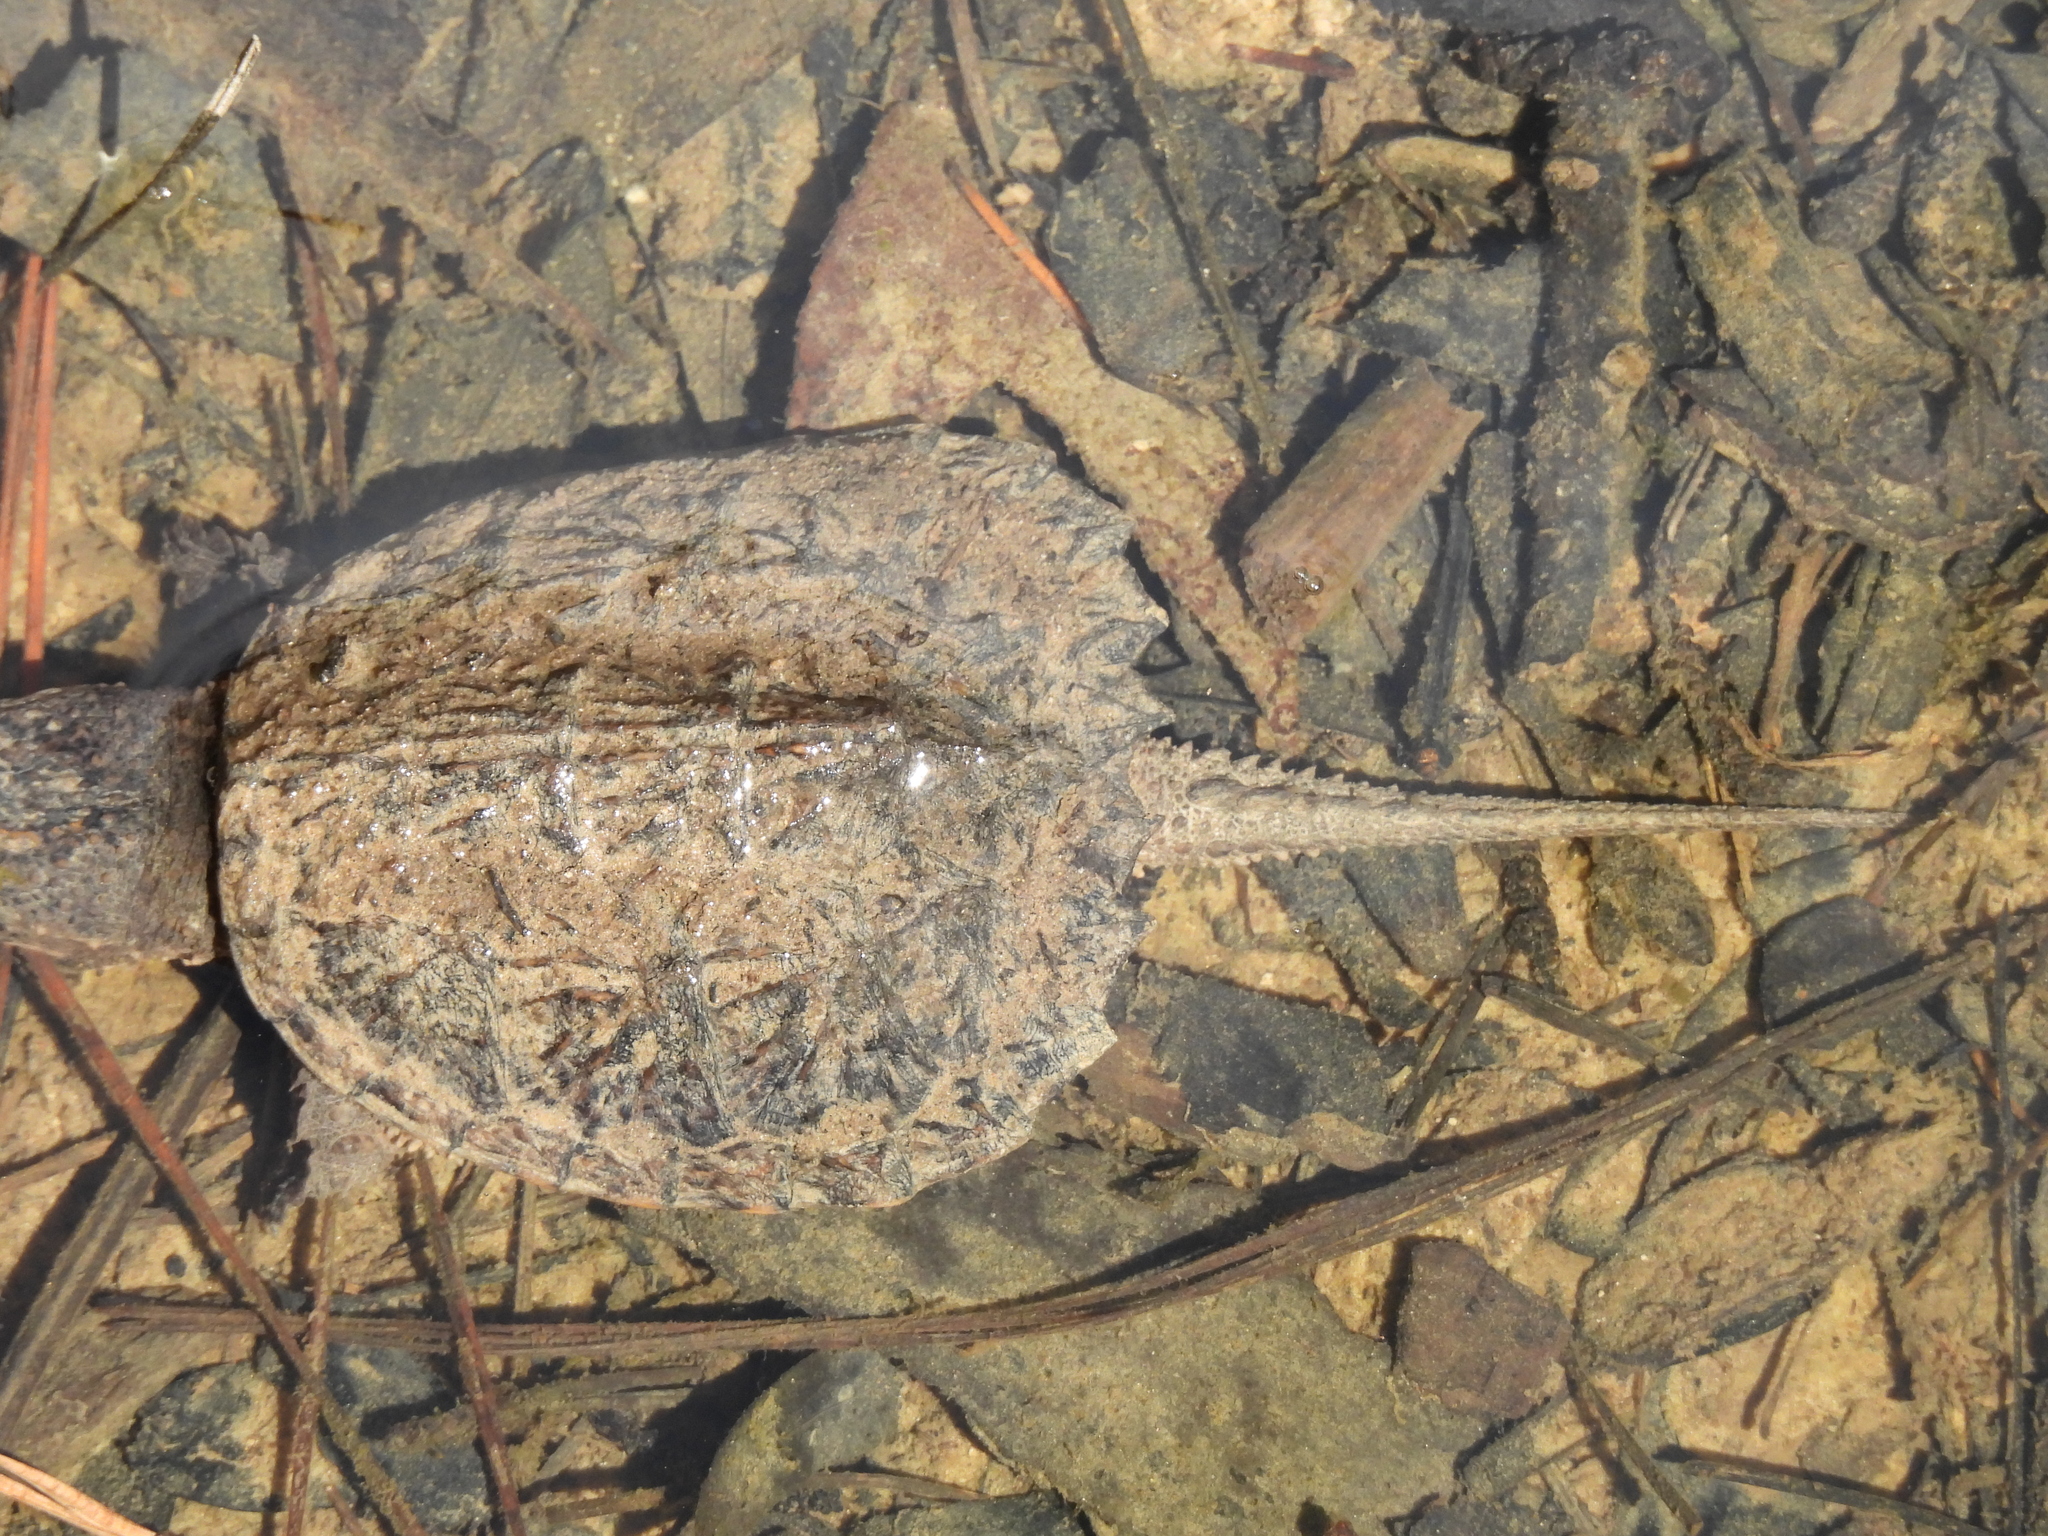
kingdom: Animalia
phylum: Chordata
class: Testudines
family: Chelydridae
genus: Chelydra
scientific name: Chelydra serpentina
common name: Common snapping turtle
